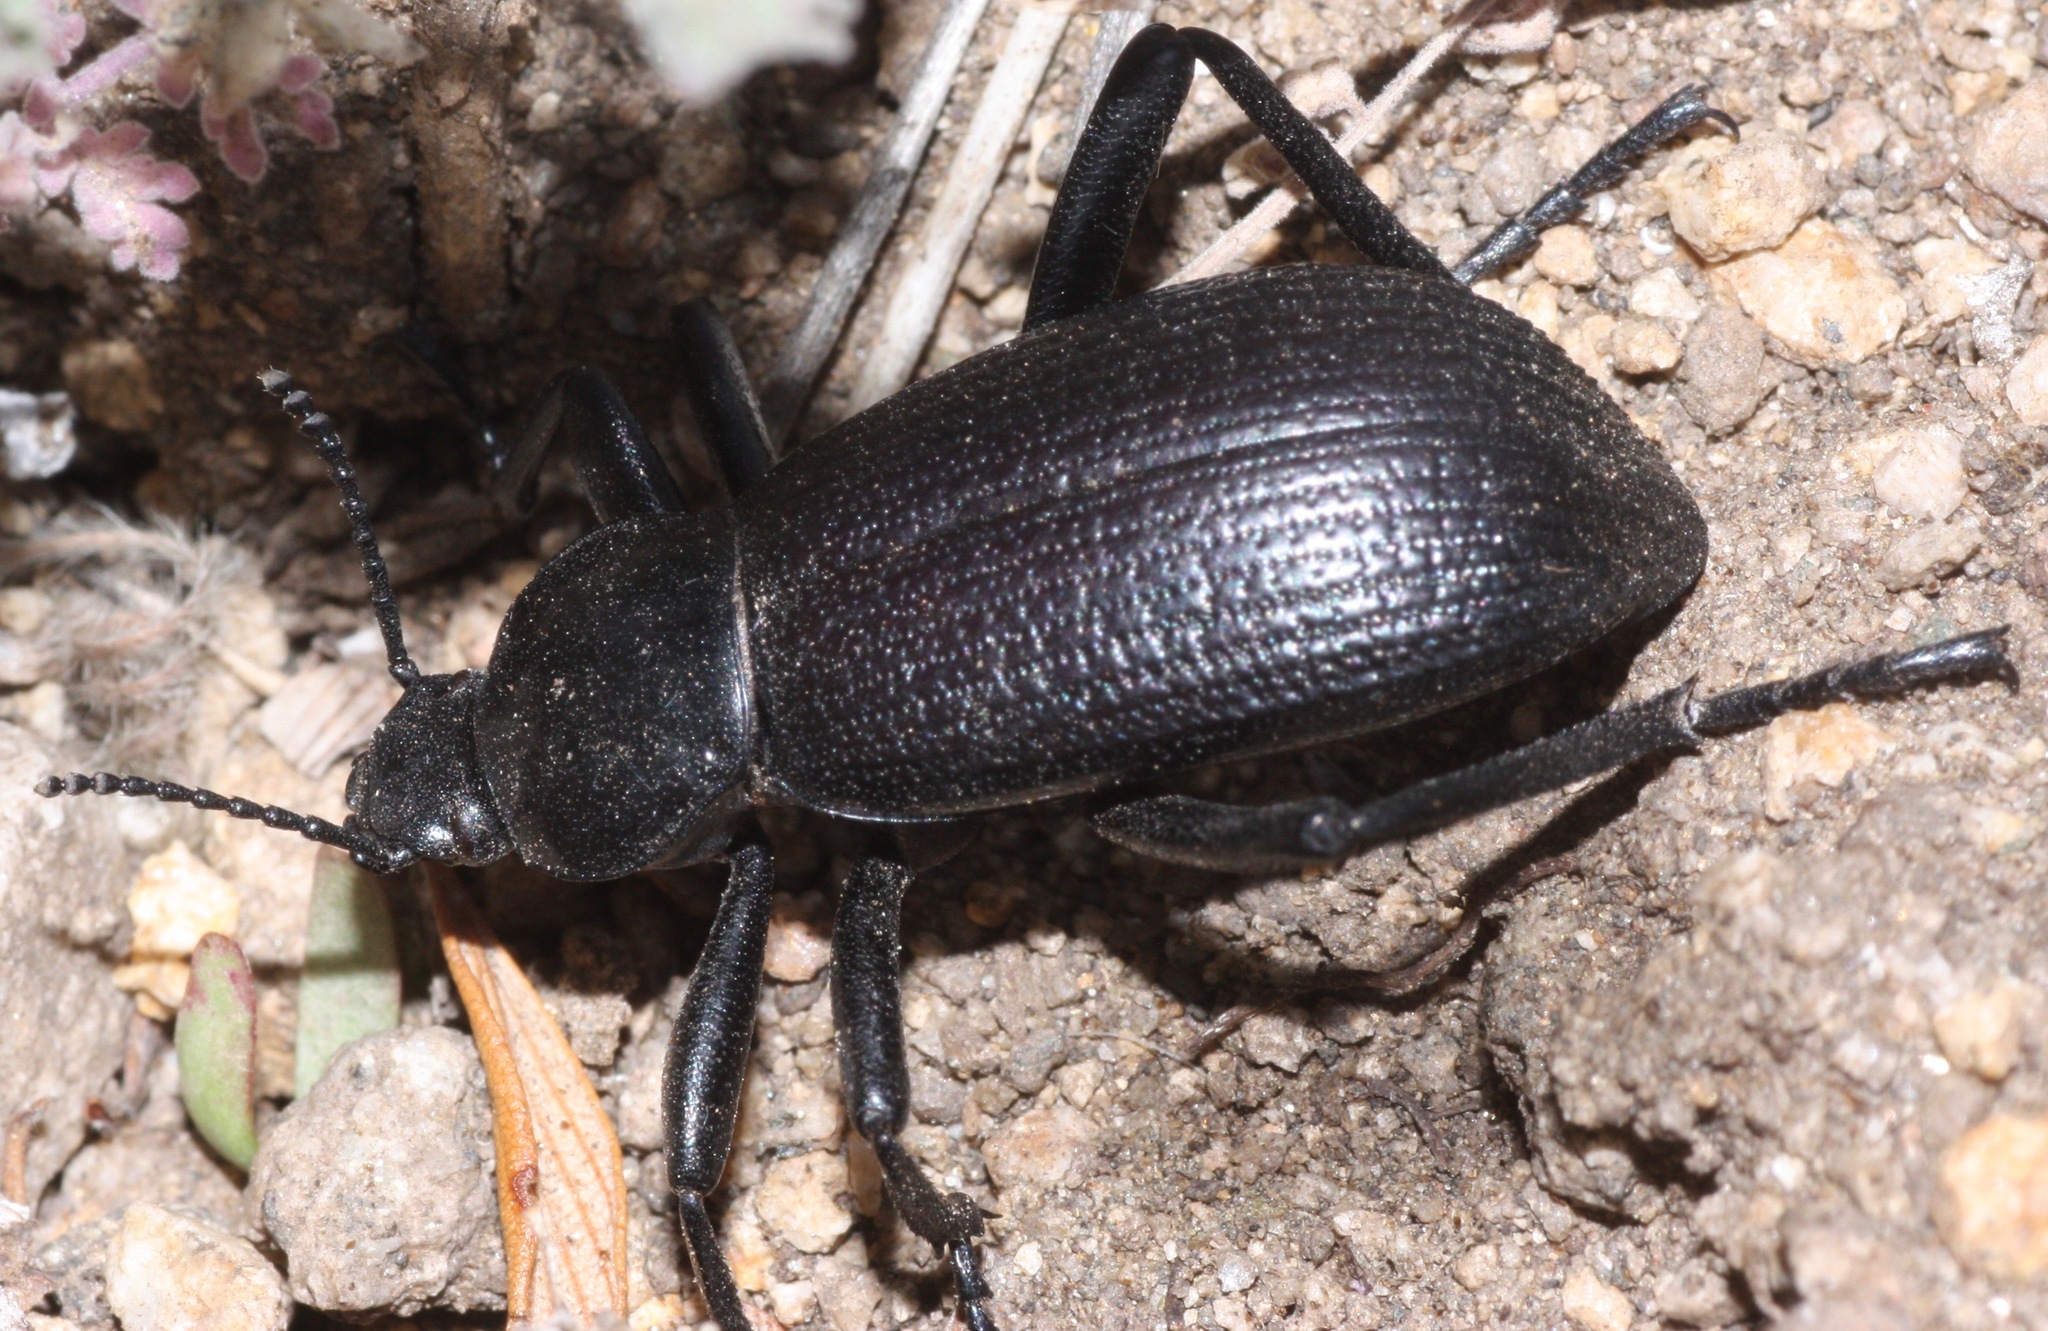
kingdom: Animalia
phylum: Arthropoda
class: Insecta
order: Coleoptera
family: Tenebrionidae
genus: Eleodes
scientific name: Eleodes obscura
